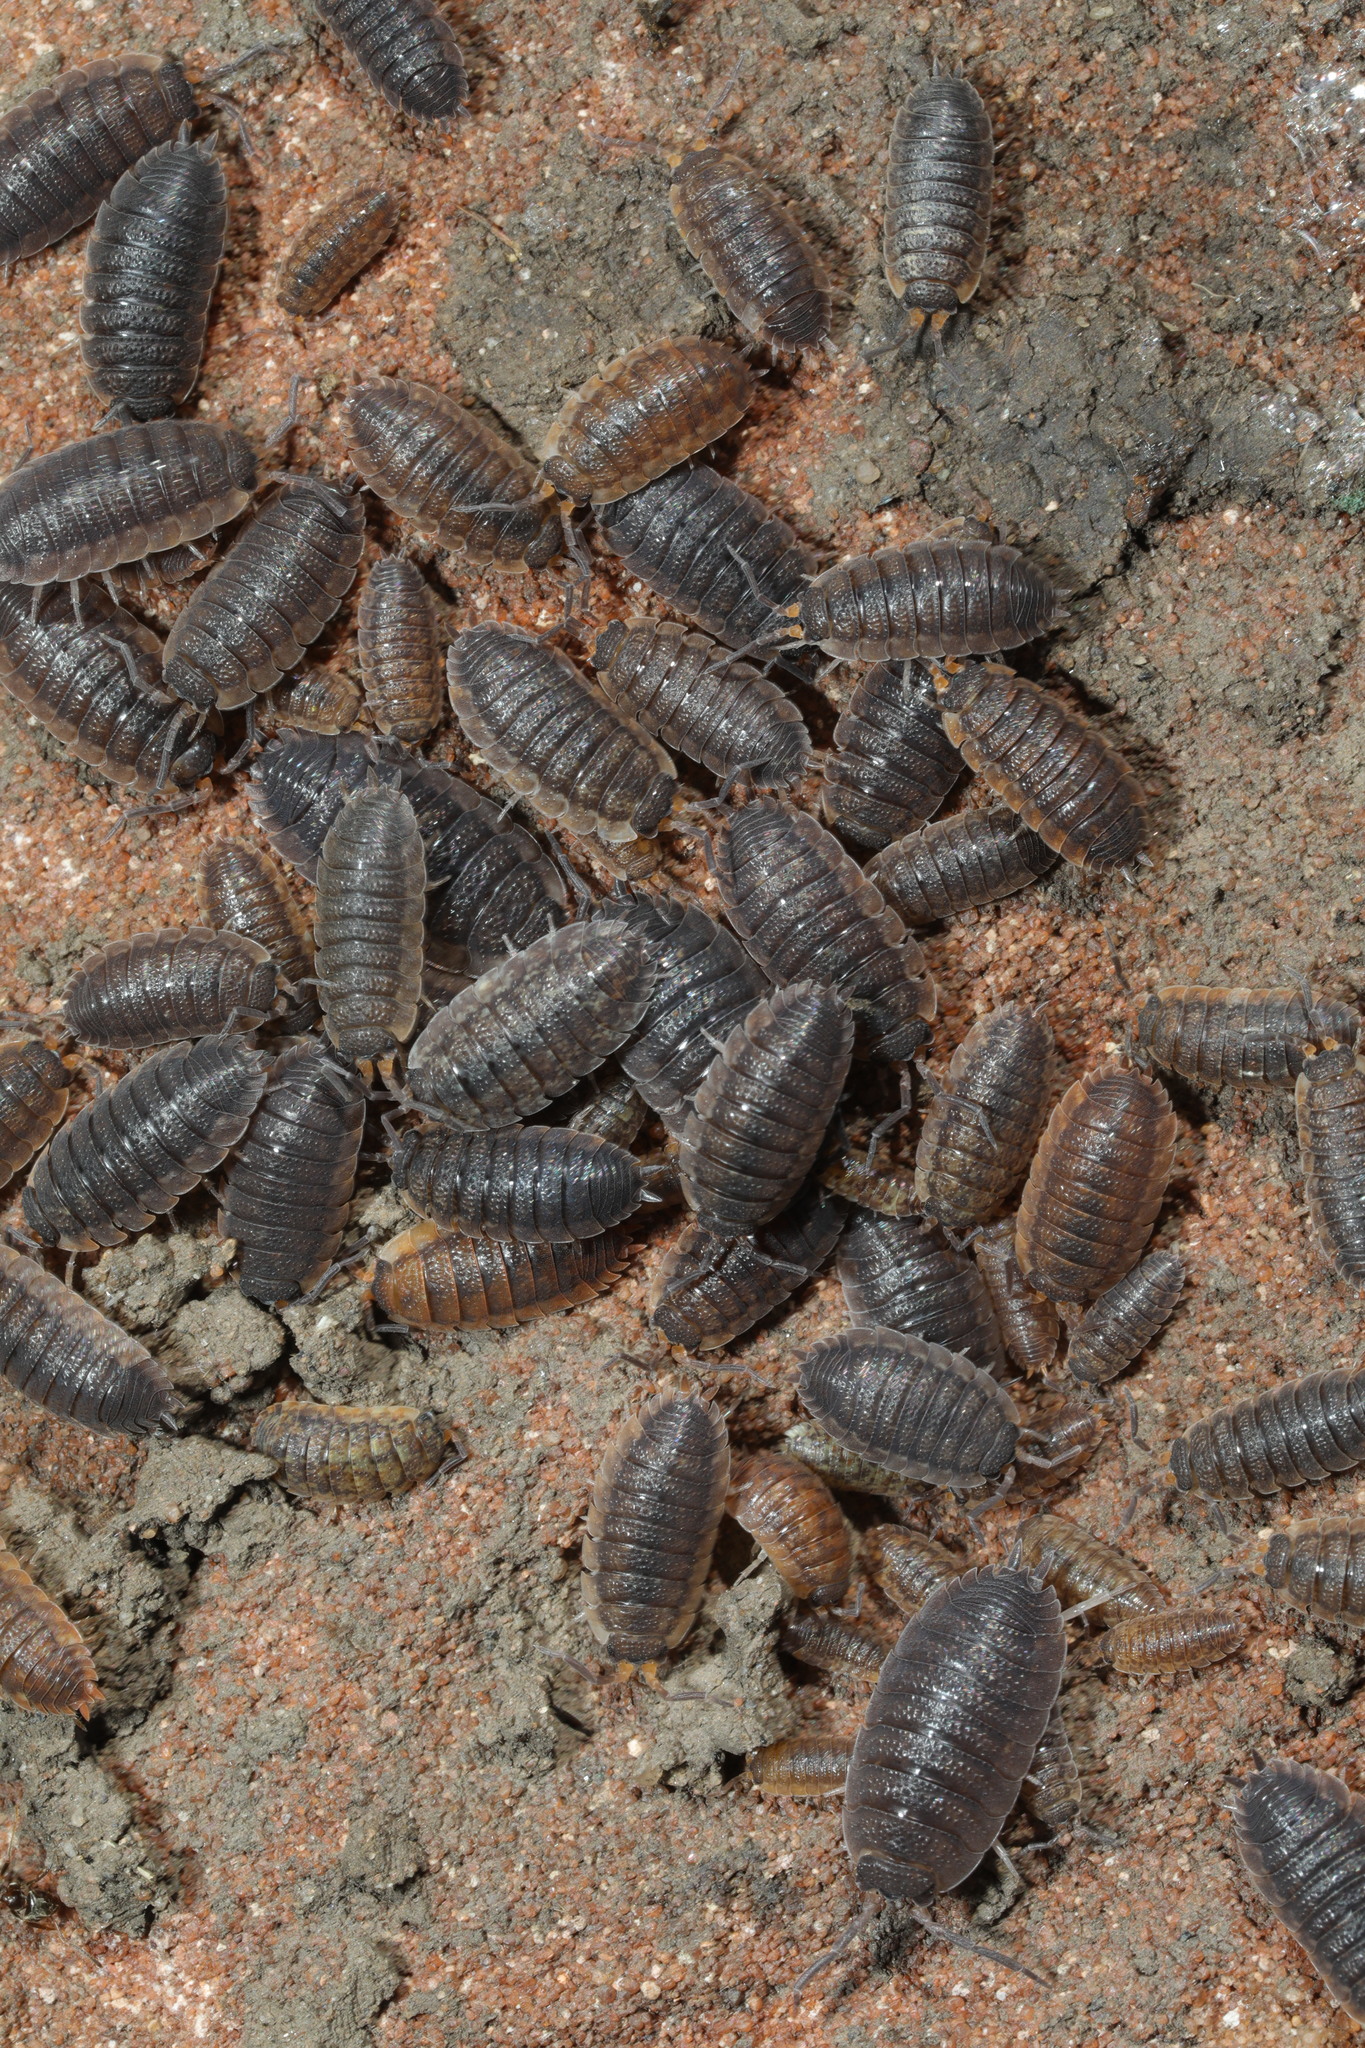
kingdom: Animalia
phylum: Arthropoda
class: Malacostraca
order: Isopoda
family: Porcellionidae
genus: Porcellio
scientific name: Porcellio scaber
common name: Common rough woodlouse
